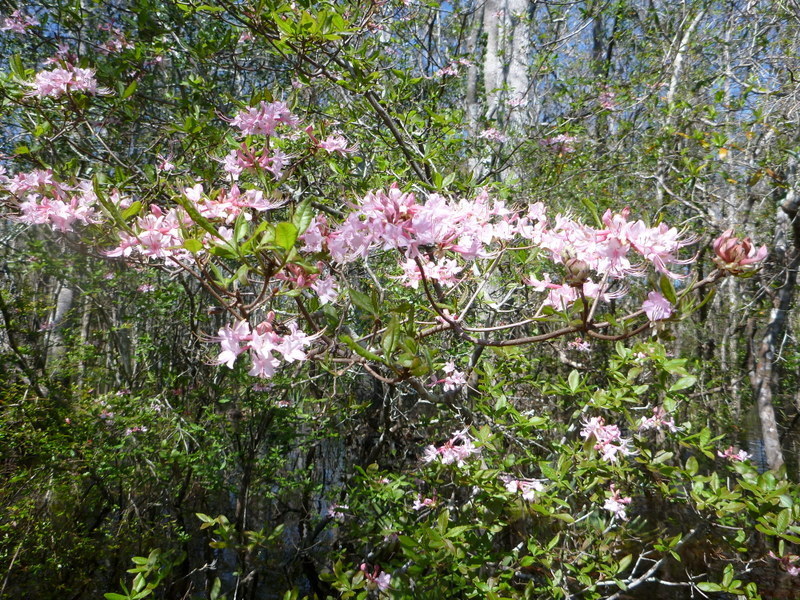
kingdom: Plantae
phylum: Tracheophyta
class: Magnoliopsida
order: Ericales
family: Ericaceae
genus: Rhododendron
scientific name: Rhododendron canescens
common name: Mountain azalea
